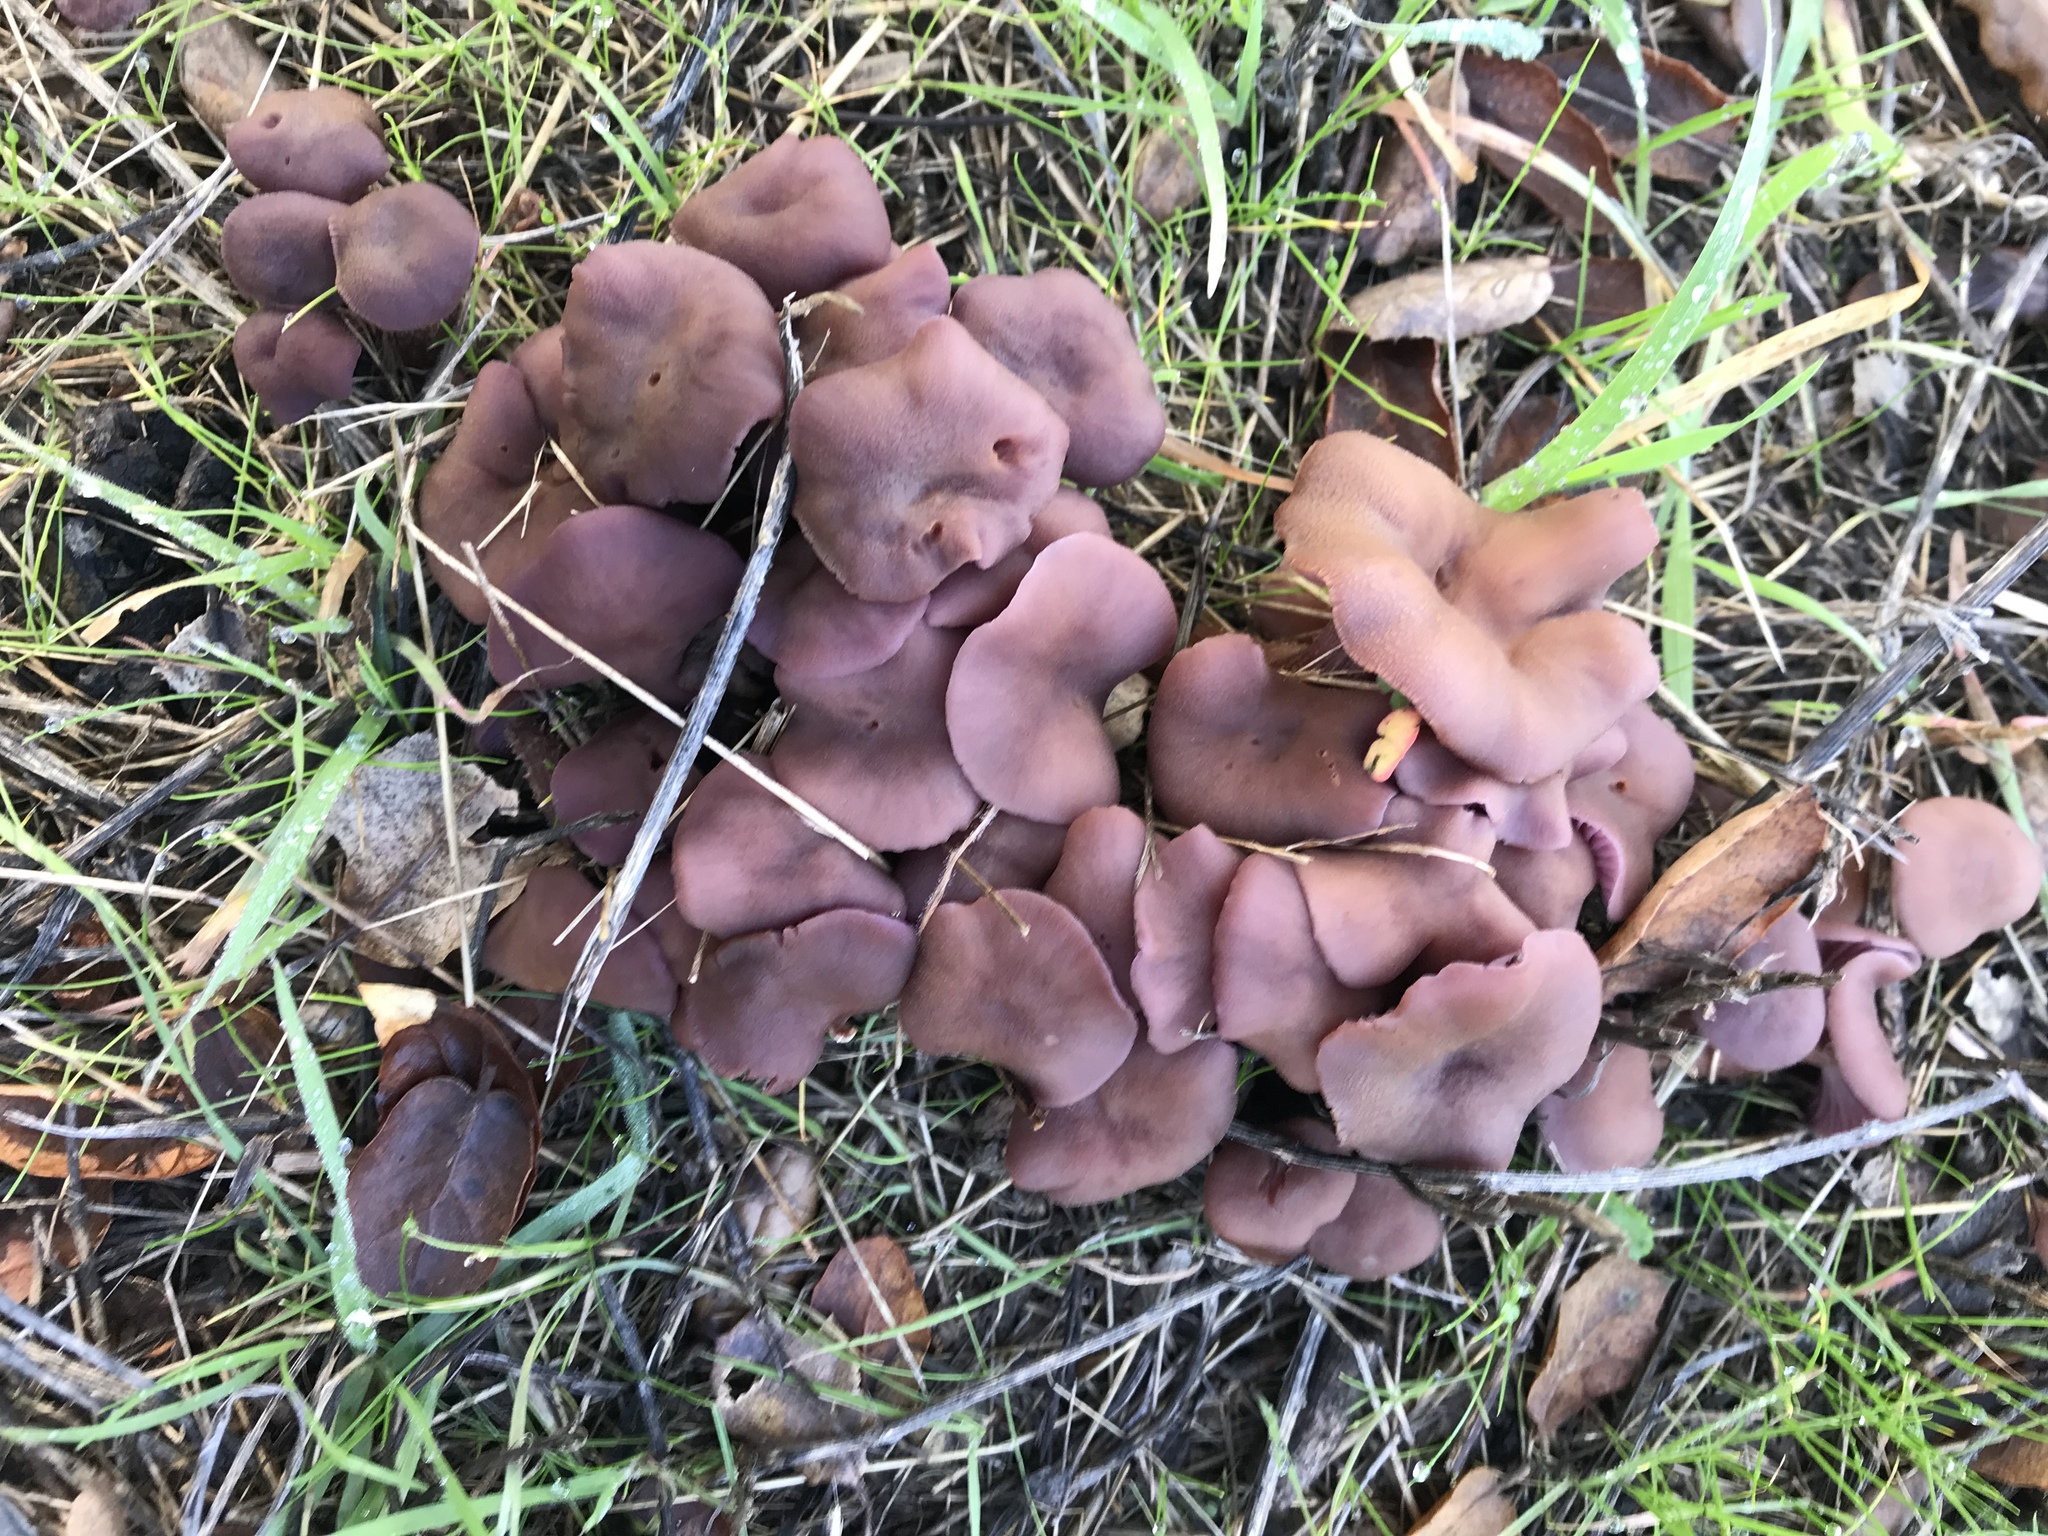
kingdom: Fungi
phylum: Basidiomycota
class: Agaricomycetes
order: Agaricales
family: Hydnangiaceae
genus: Laccaria
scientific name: Laccaria amethysteo-occidentalis
